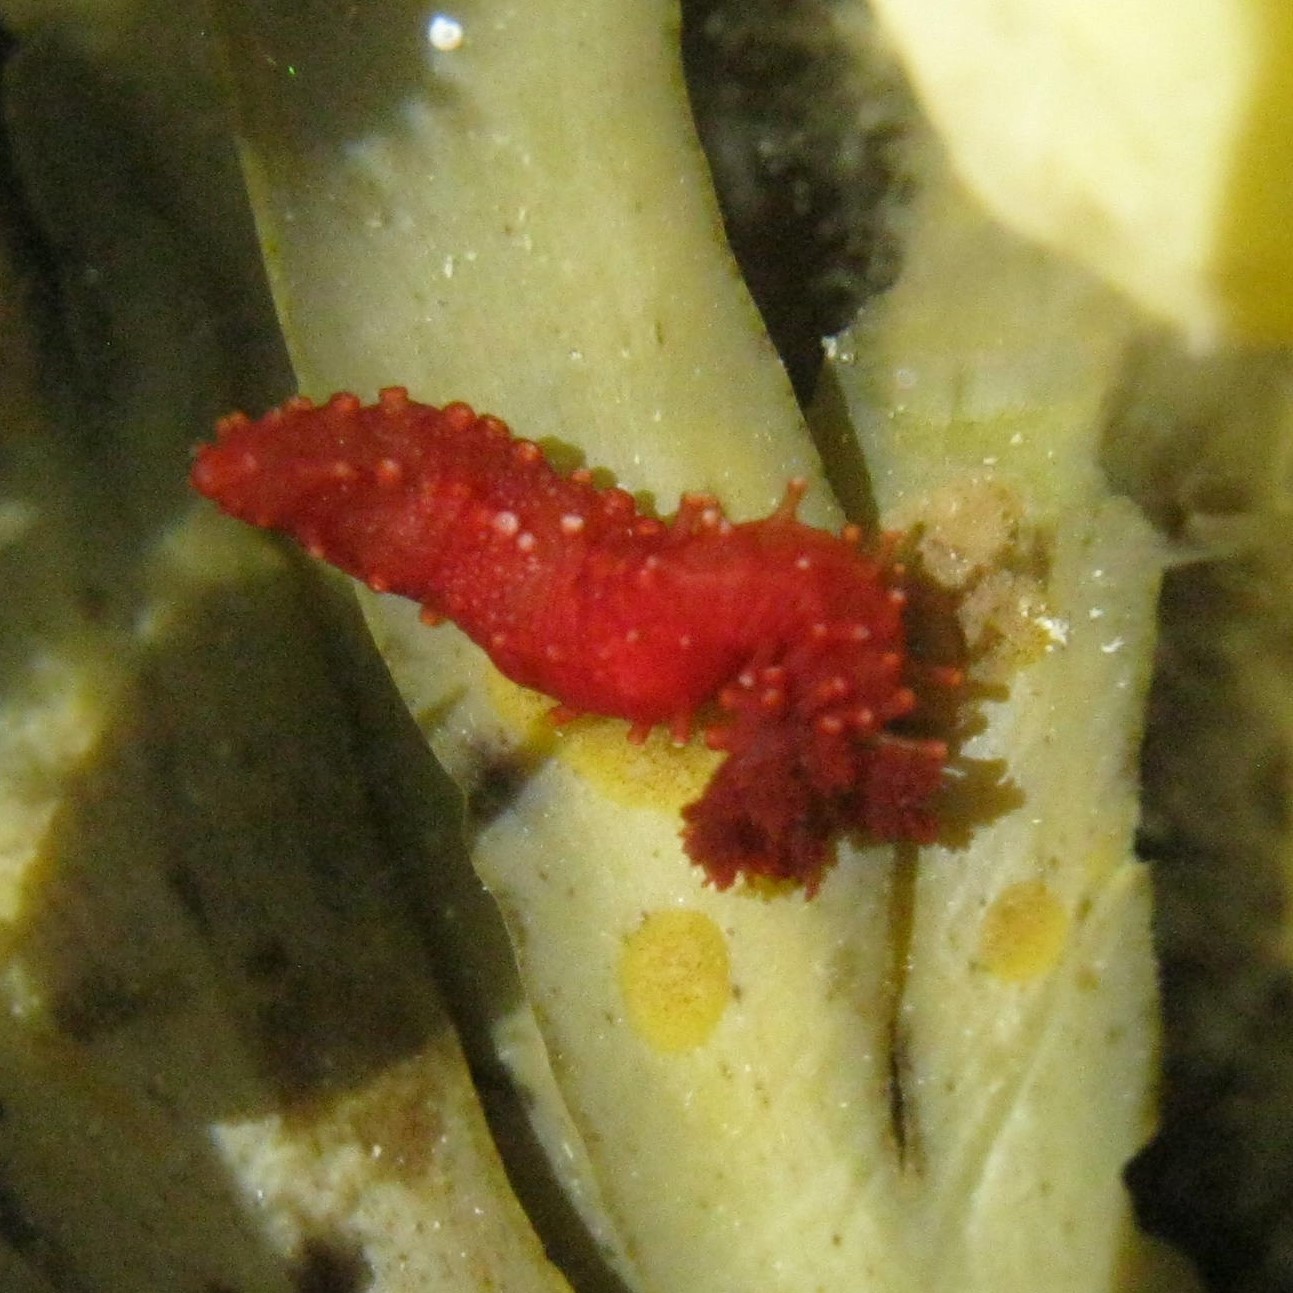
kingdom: Animalia
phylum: Echinodermata
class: Holothuroidea
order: Dendrochirotida
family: Cucumariidae
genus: Squamocnus
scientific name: Squamocnus brevidentis
